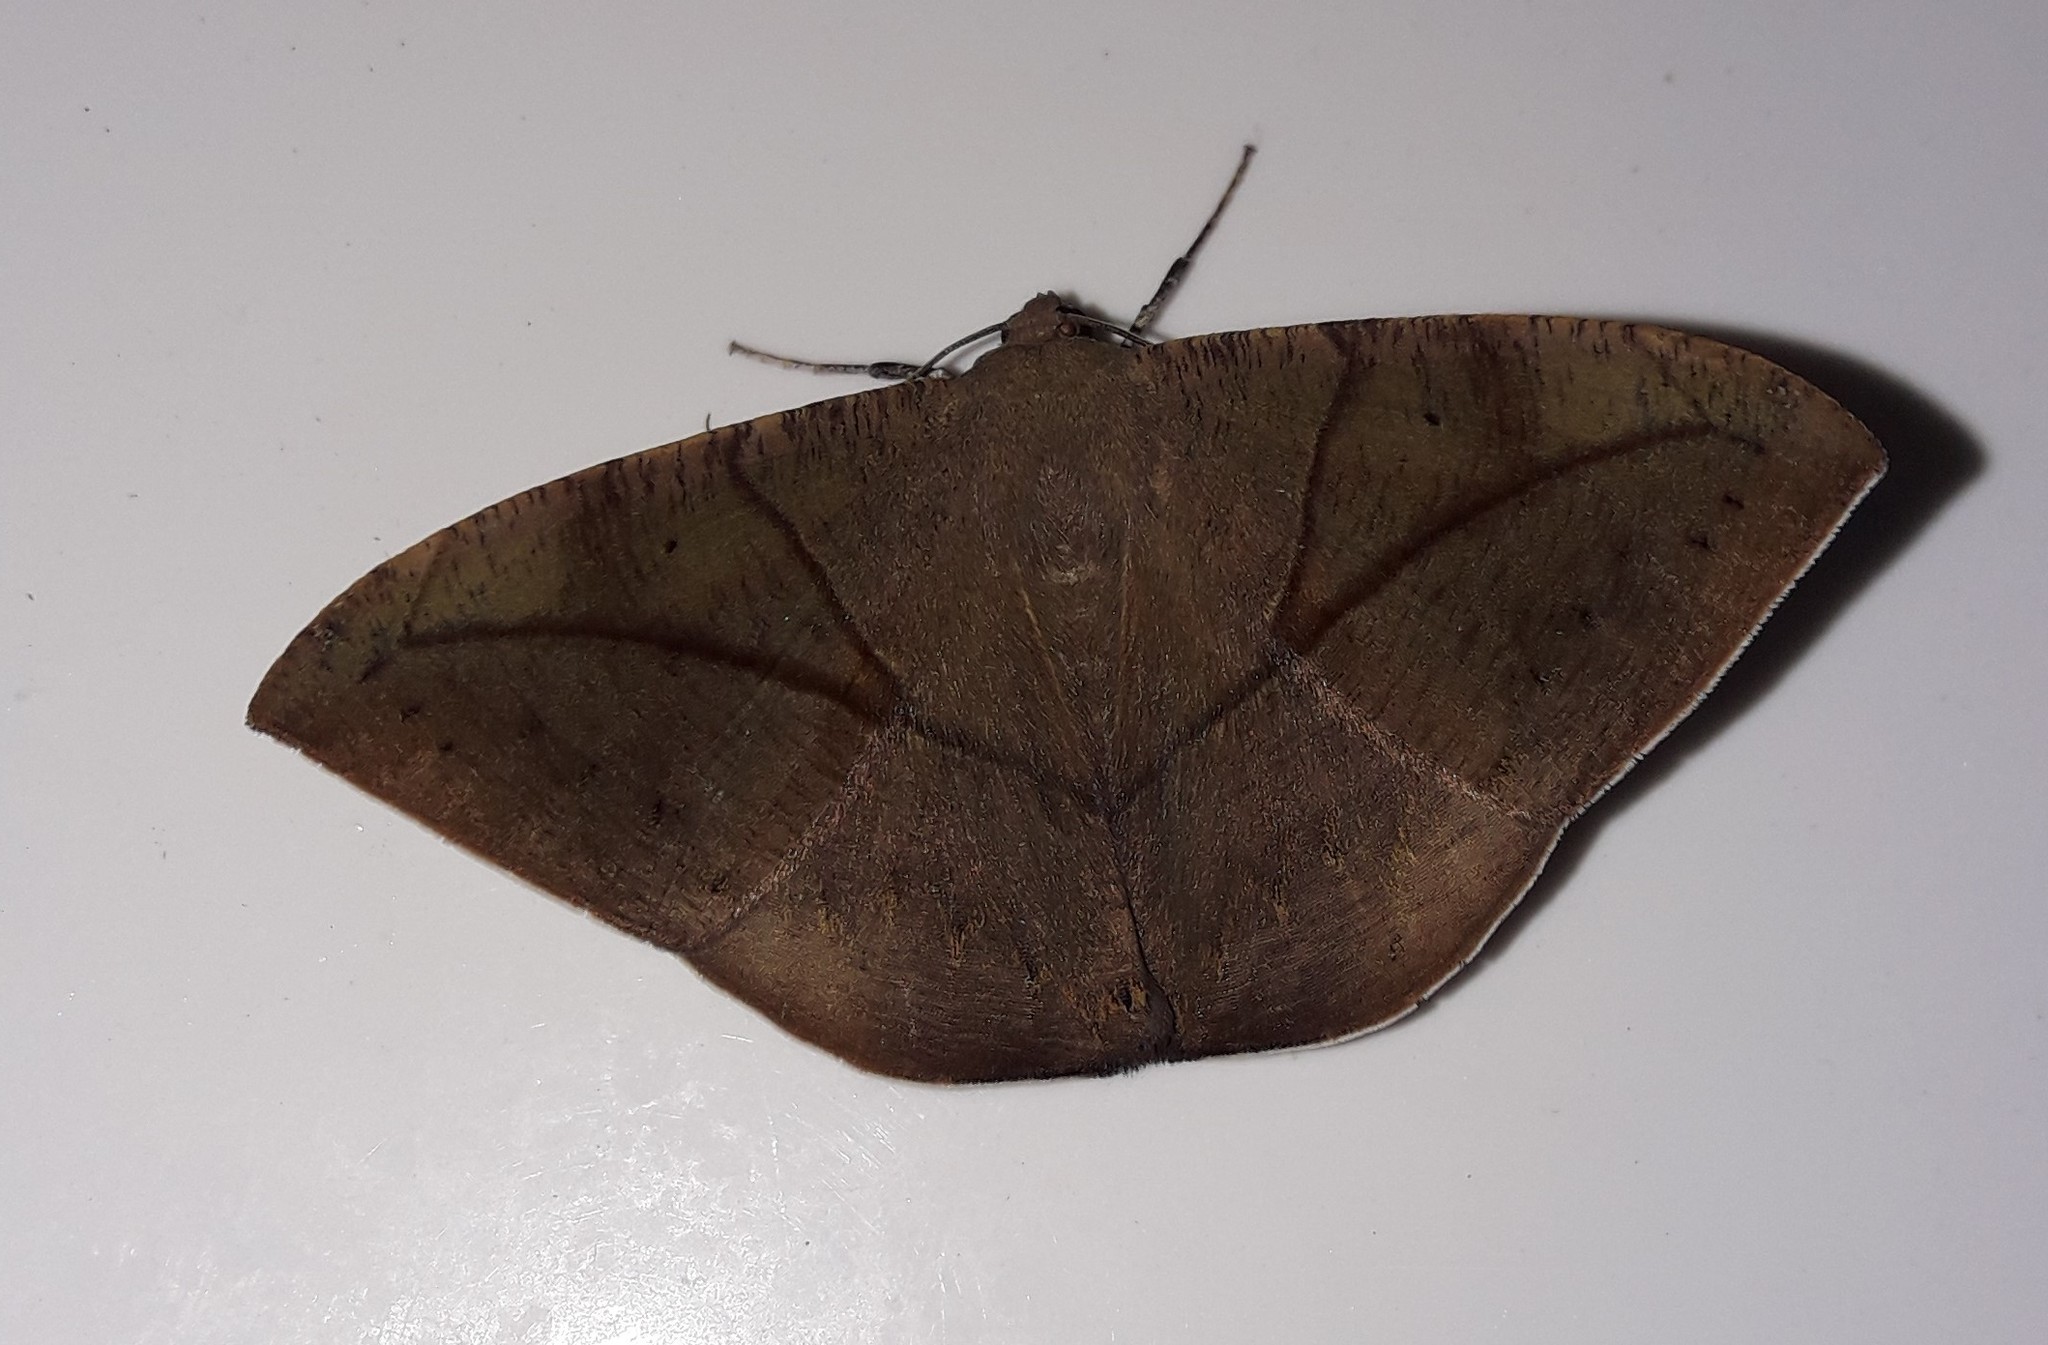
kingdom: Animalia
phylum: Arthropoda
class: Insecta
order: Lepidoptera
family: Geometridae
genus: Oxydia
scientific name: Oxydia trychiata
